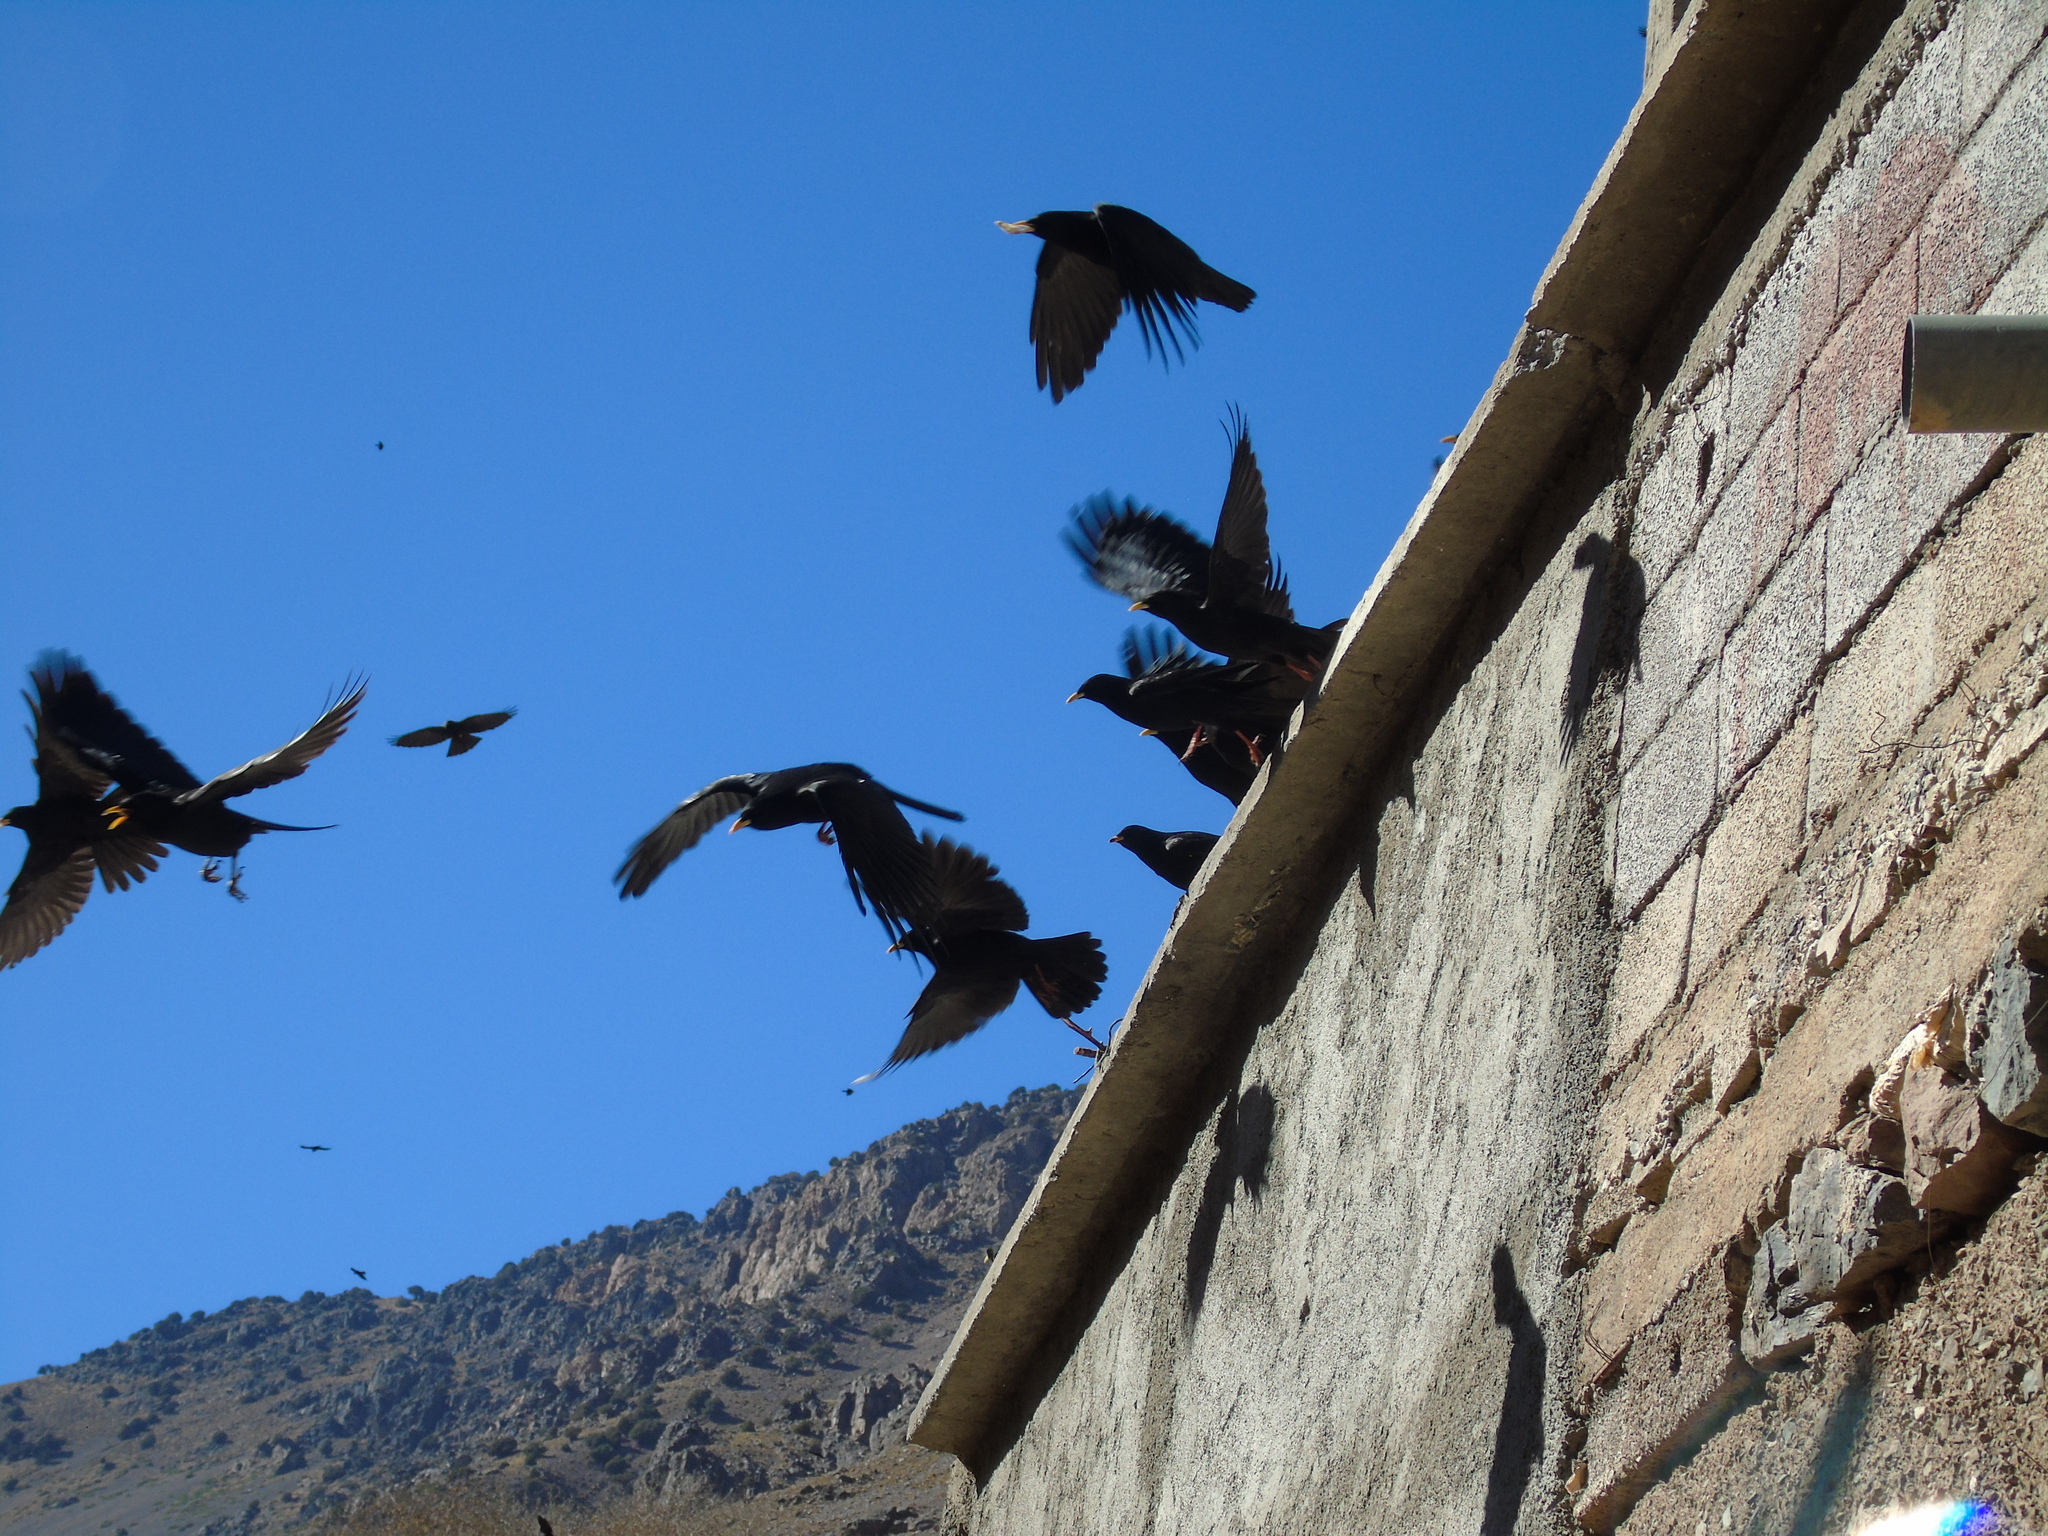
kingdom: Animalia
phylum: Chordata
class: Aves
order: Passeriformes
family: Corvidae
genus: Pyrrhocorax
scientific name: Pyrrhocorax graculus
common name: Alpine chough
